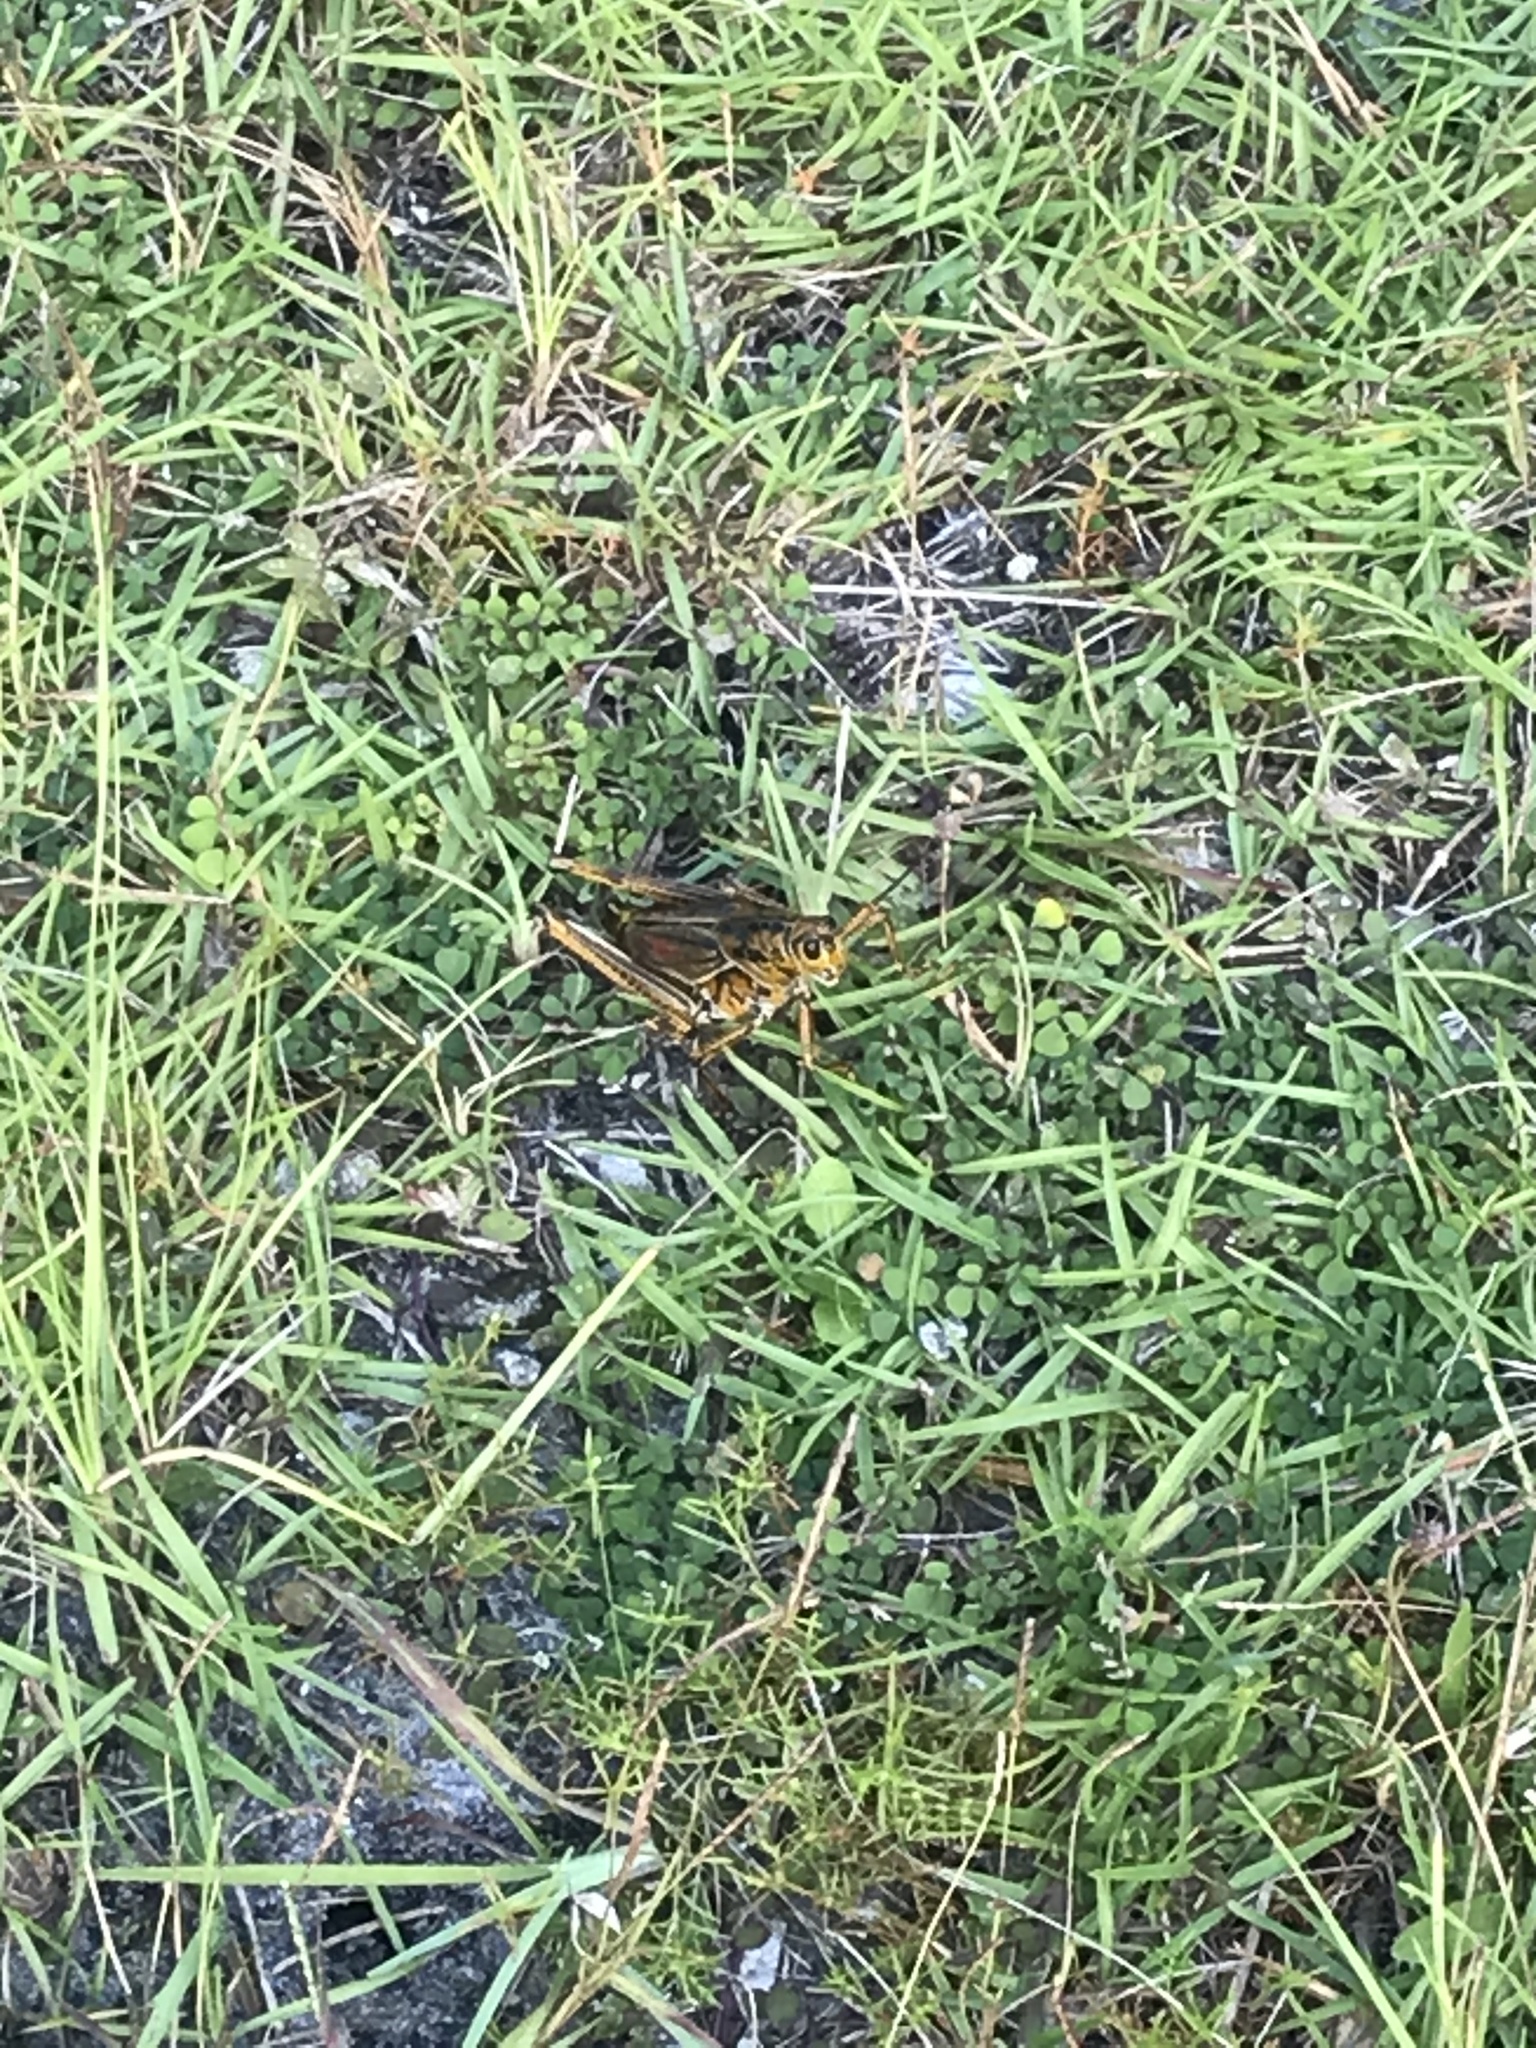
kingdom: Animalia
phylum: Arthropoda
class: Insecta
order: Orthoptera
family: Romaleidae
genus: Romalea
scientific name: Romalea microptera
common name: Eastern lubber grasshopper
